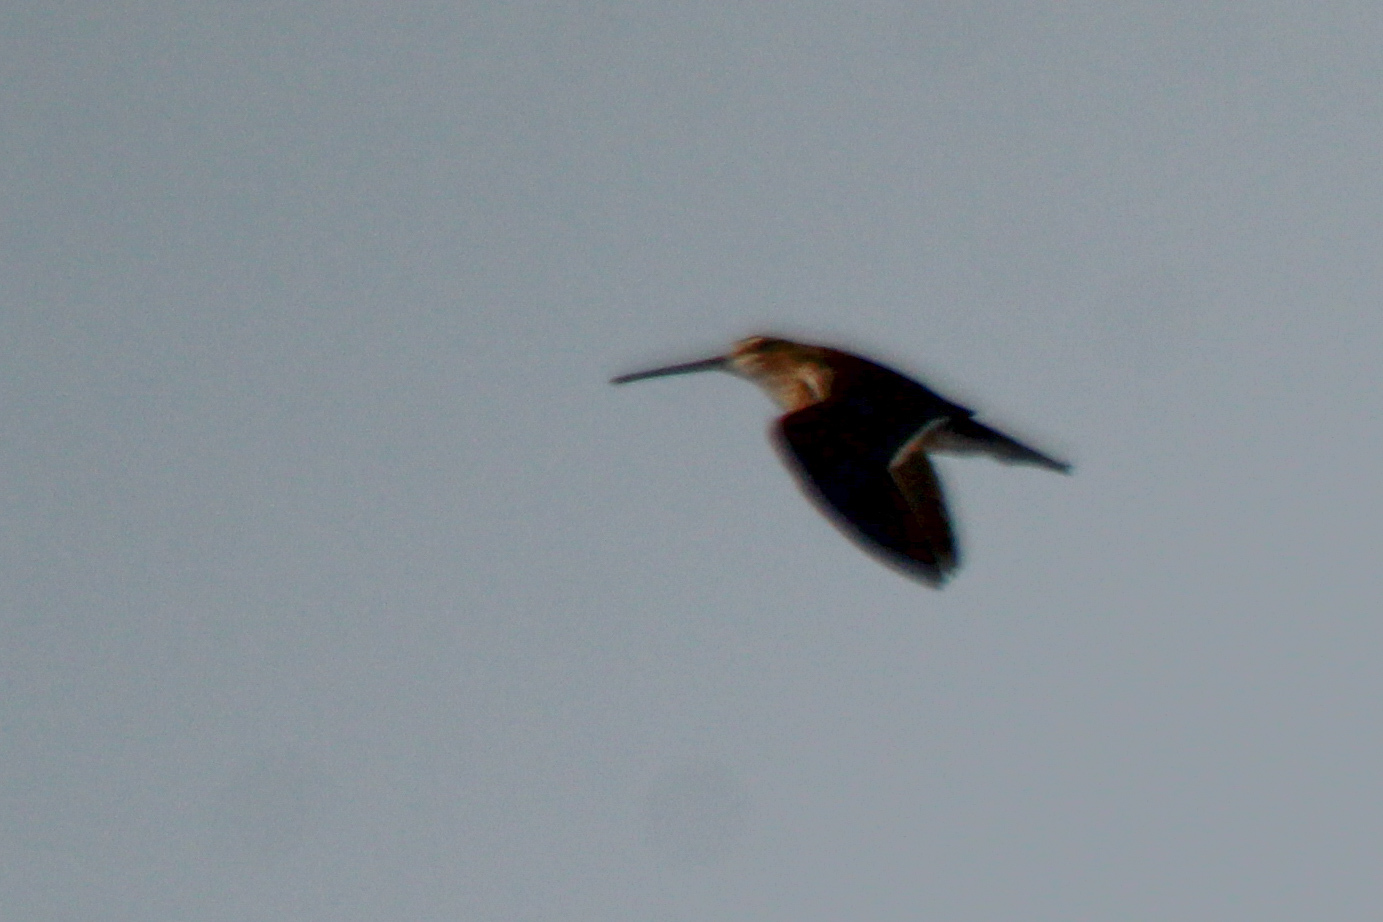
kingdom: Animalia
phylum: Chordata
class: Aves
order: Charadriiformes
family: Scolopacidae
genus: Gallinago
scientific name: Gallinago gallinago
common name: Common snipe
